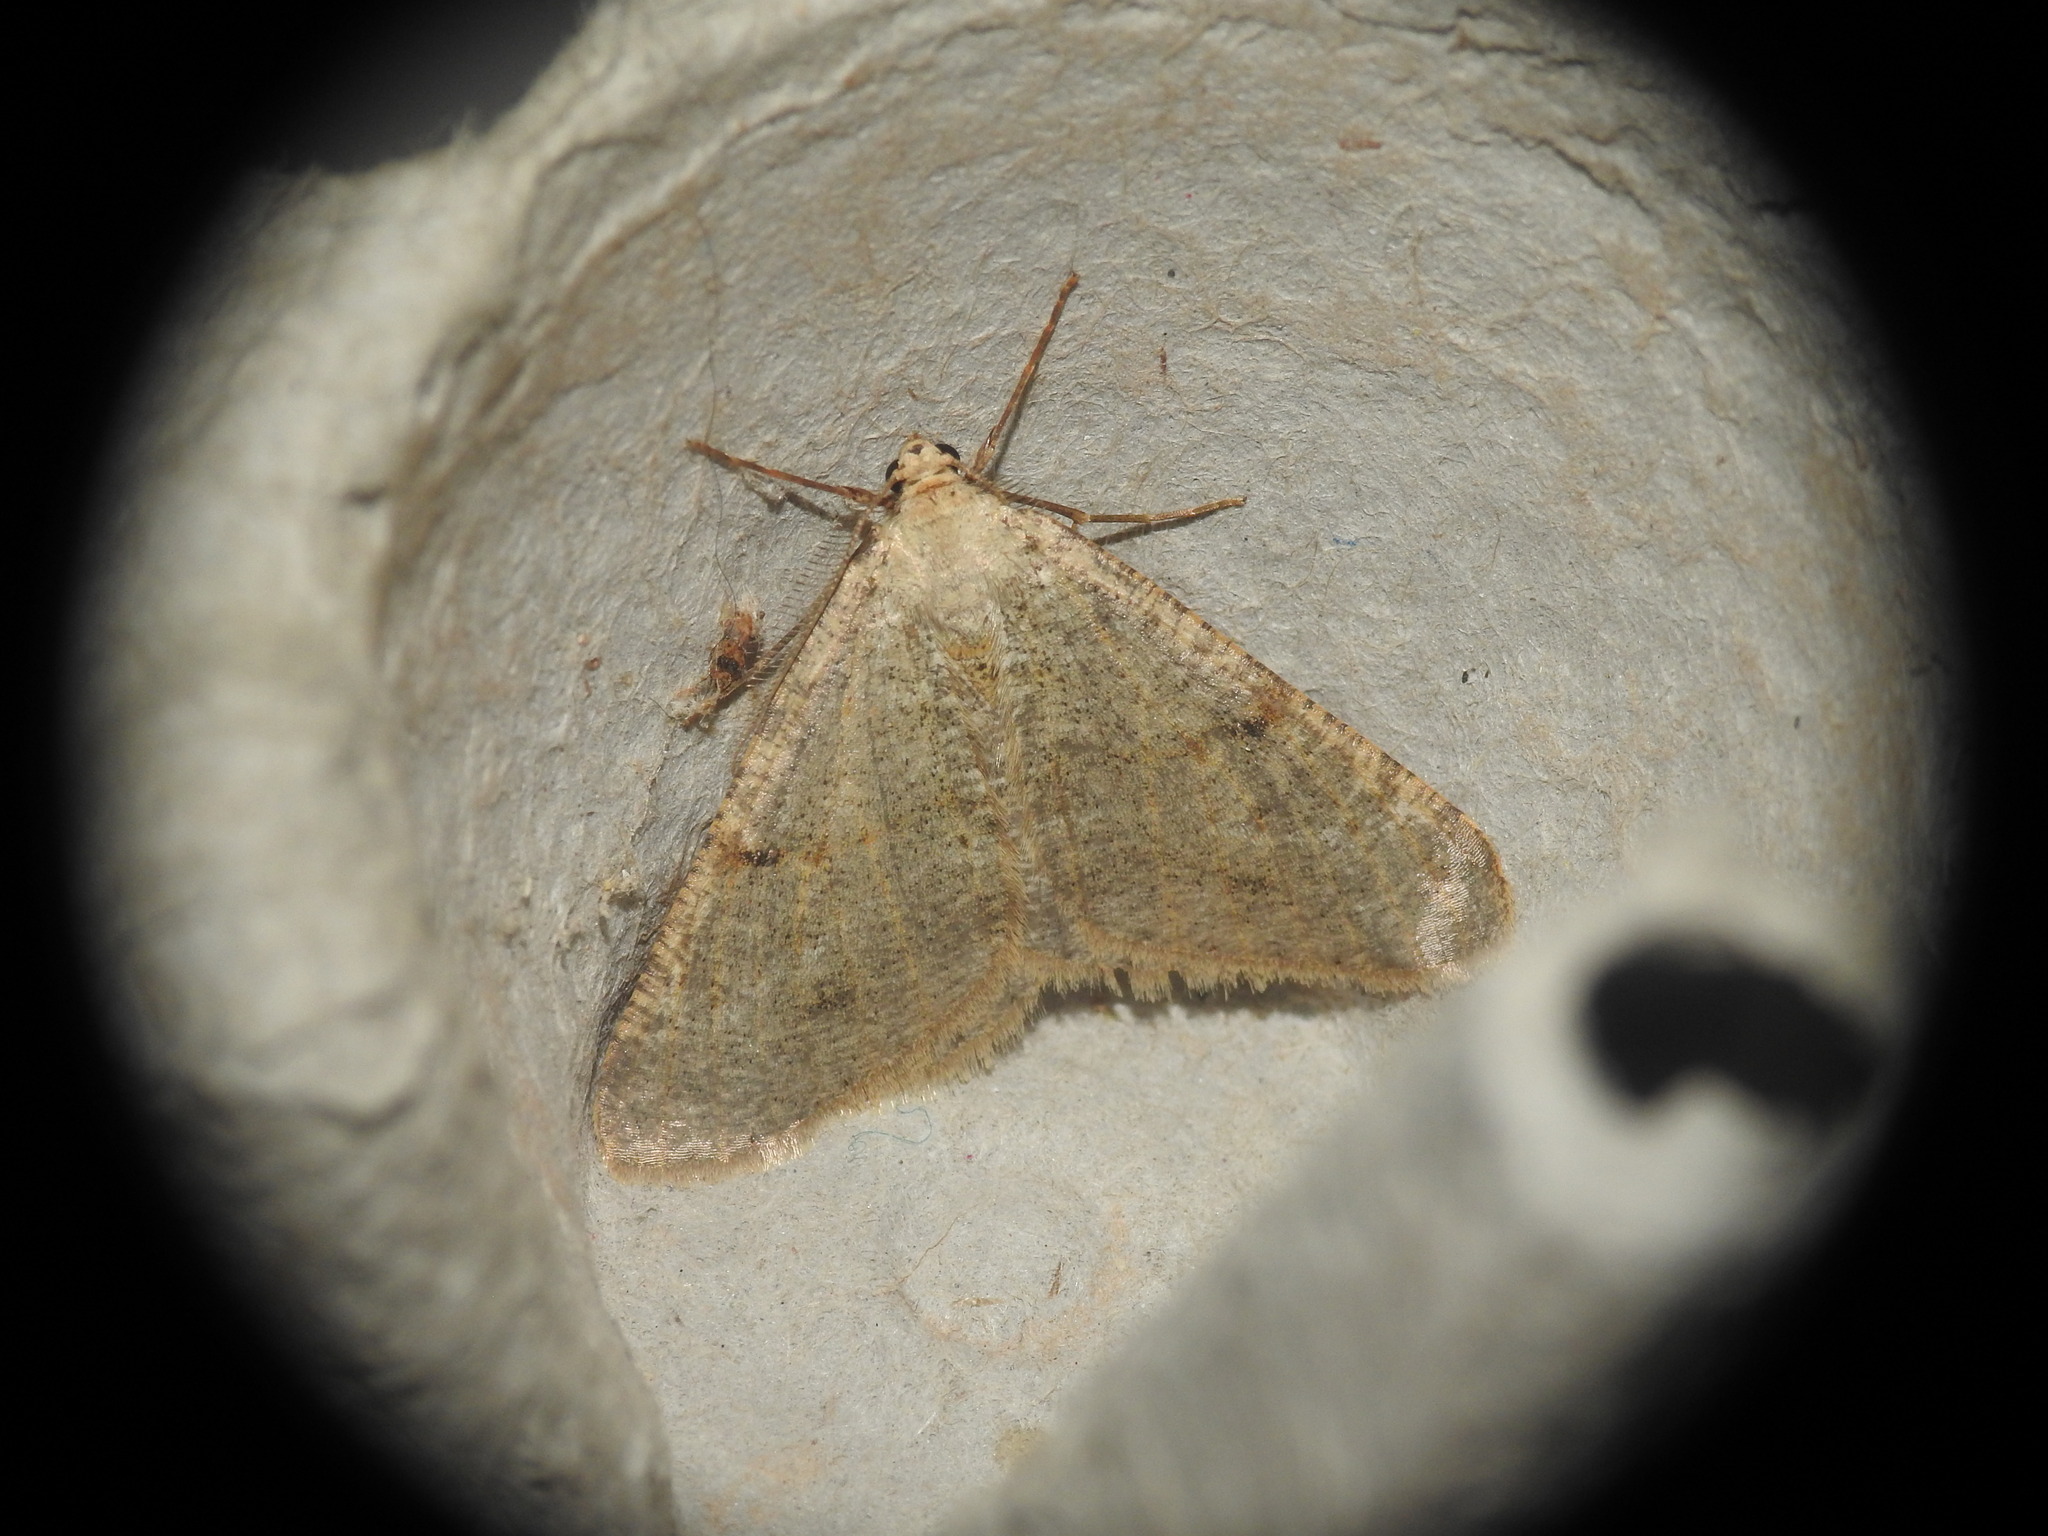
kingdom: Animalia
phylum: Arthropoda
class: Insecta
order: Lepidoptera
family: Geometridae
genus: Isturgia
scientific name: Isturgia miniosaria
